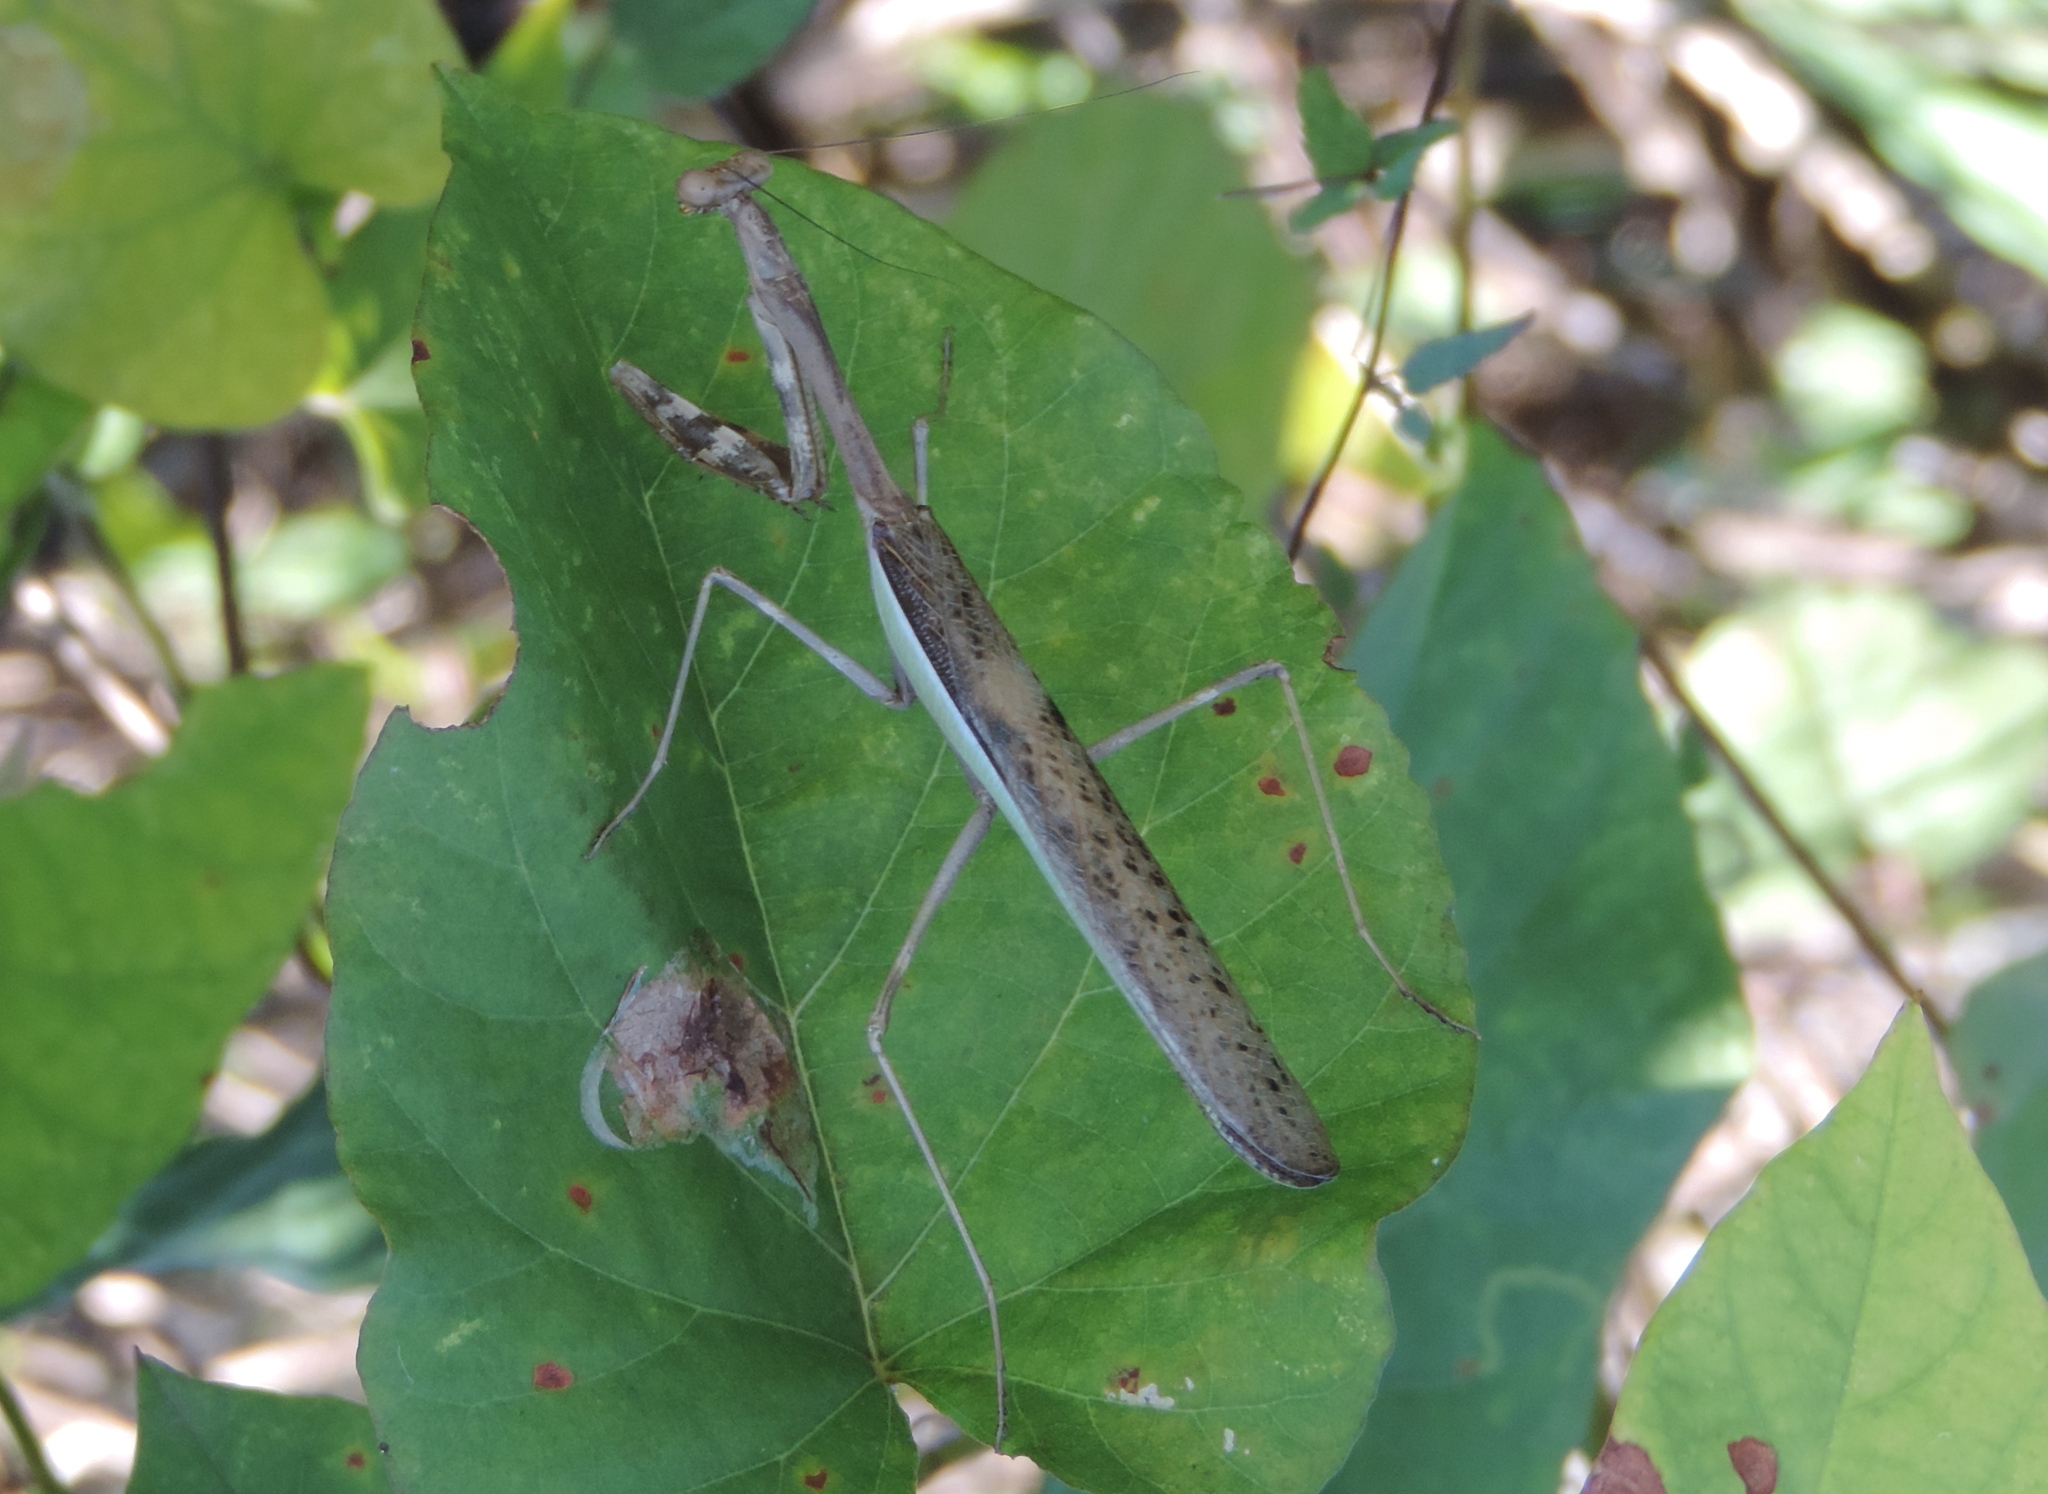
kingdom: Animalia
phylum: Arthropoda
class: Insecta
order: Mantodea
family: Mantidae
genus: Stagmomantis
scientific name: Stagmomantis montana
